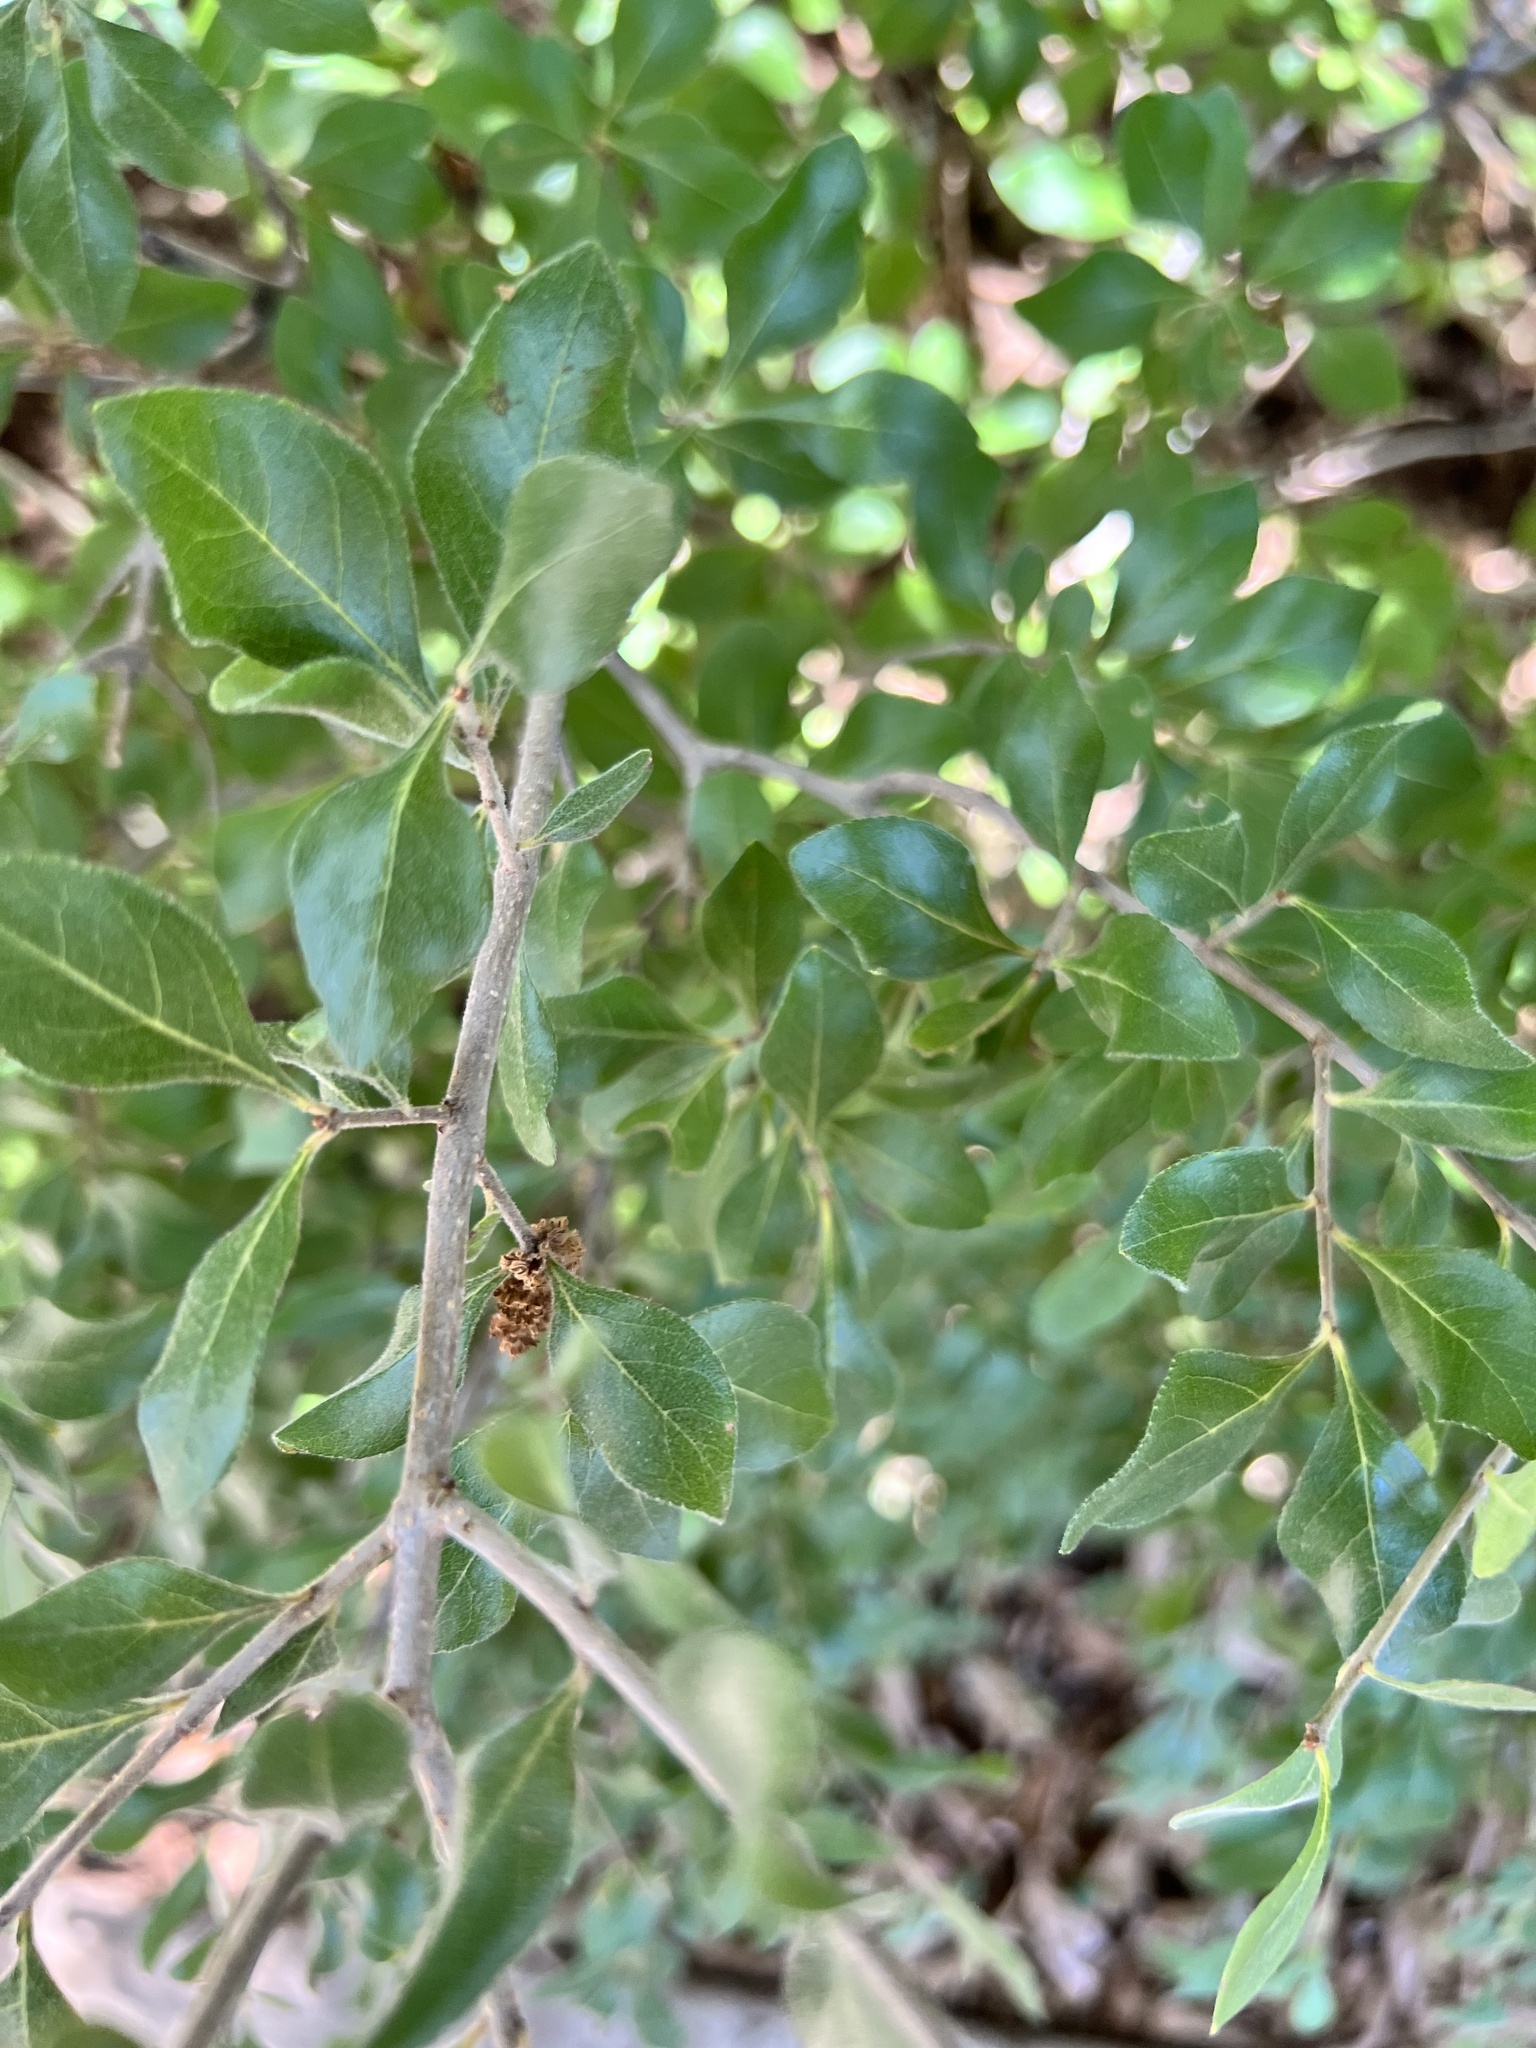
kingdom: Plantae
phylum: Tracheophyta
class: Magnoliopsida
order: Lamiales
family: Oleaceae
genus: Forestiera
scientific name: Forestiera pubescens
